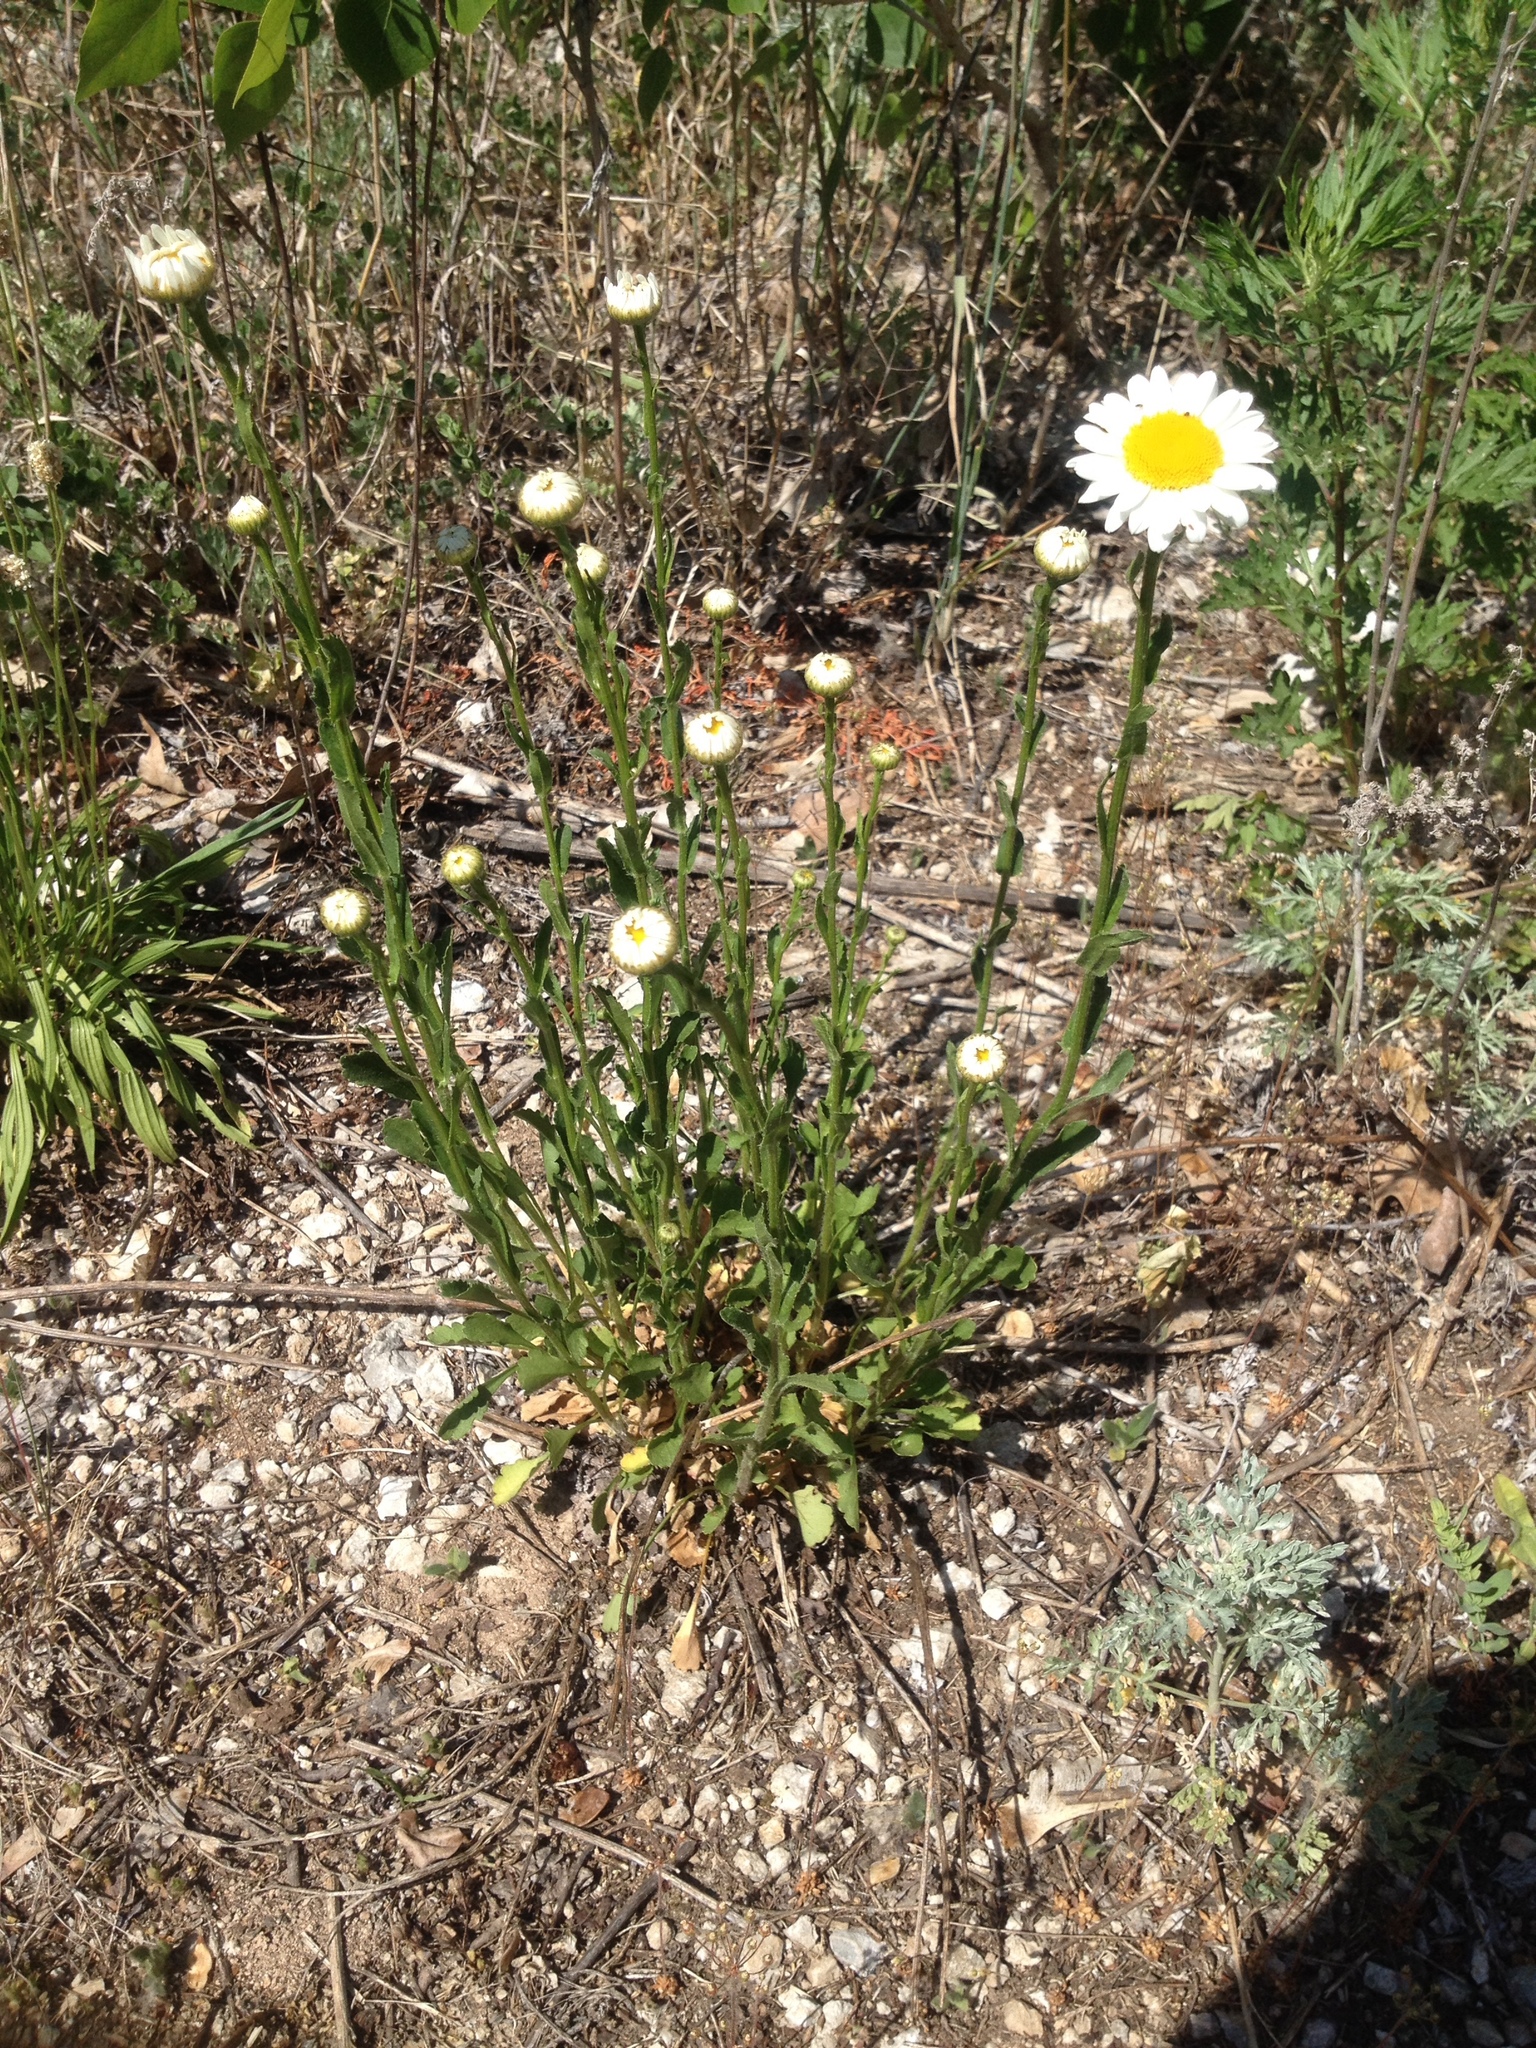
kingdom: Plantae
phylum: Tracheophyta
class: Magnoliopsida
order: Asterales
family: Asteraceae
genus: Leucanthemum
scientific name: Leucanthemum vulgare
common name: Oxeye daisy
